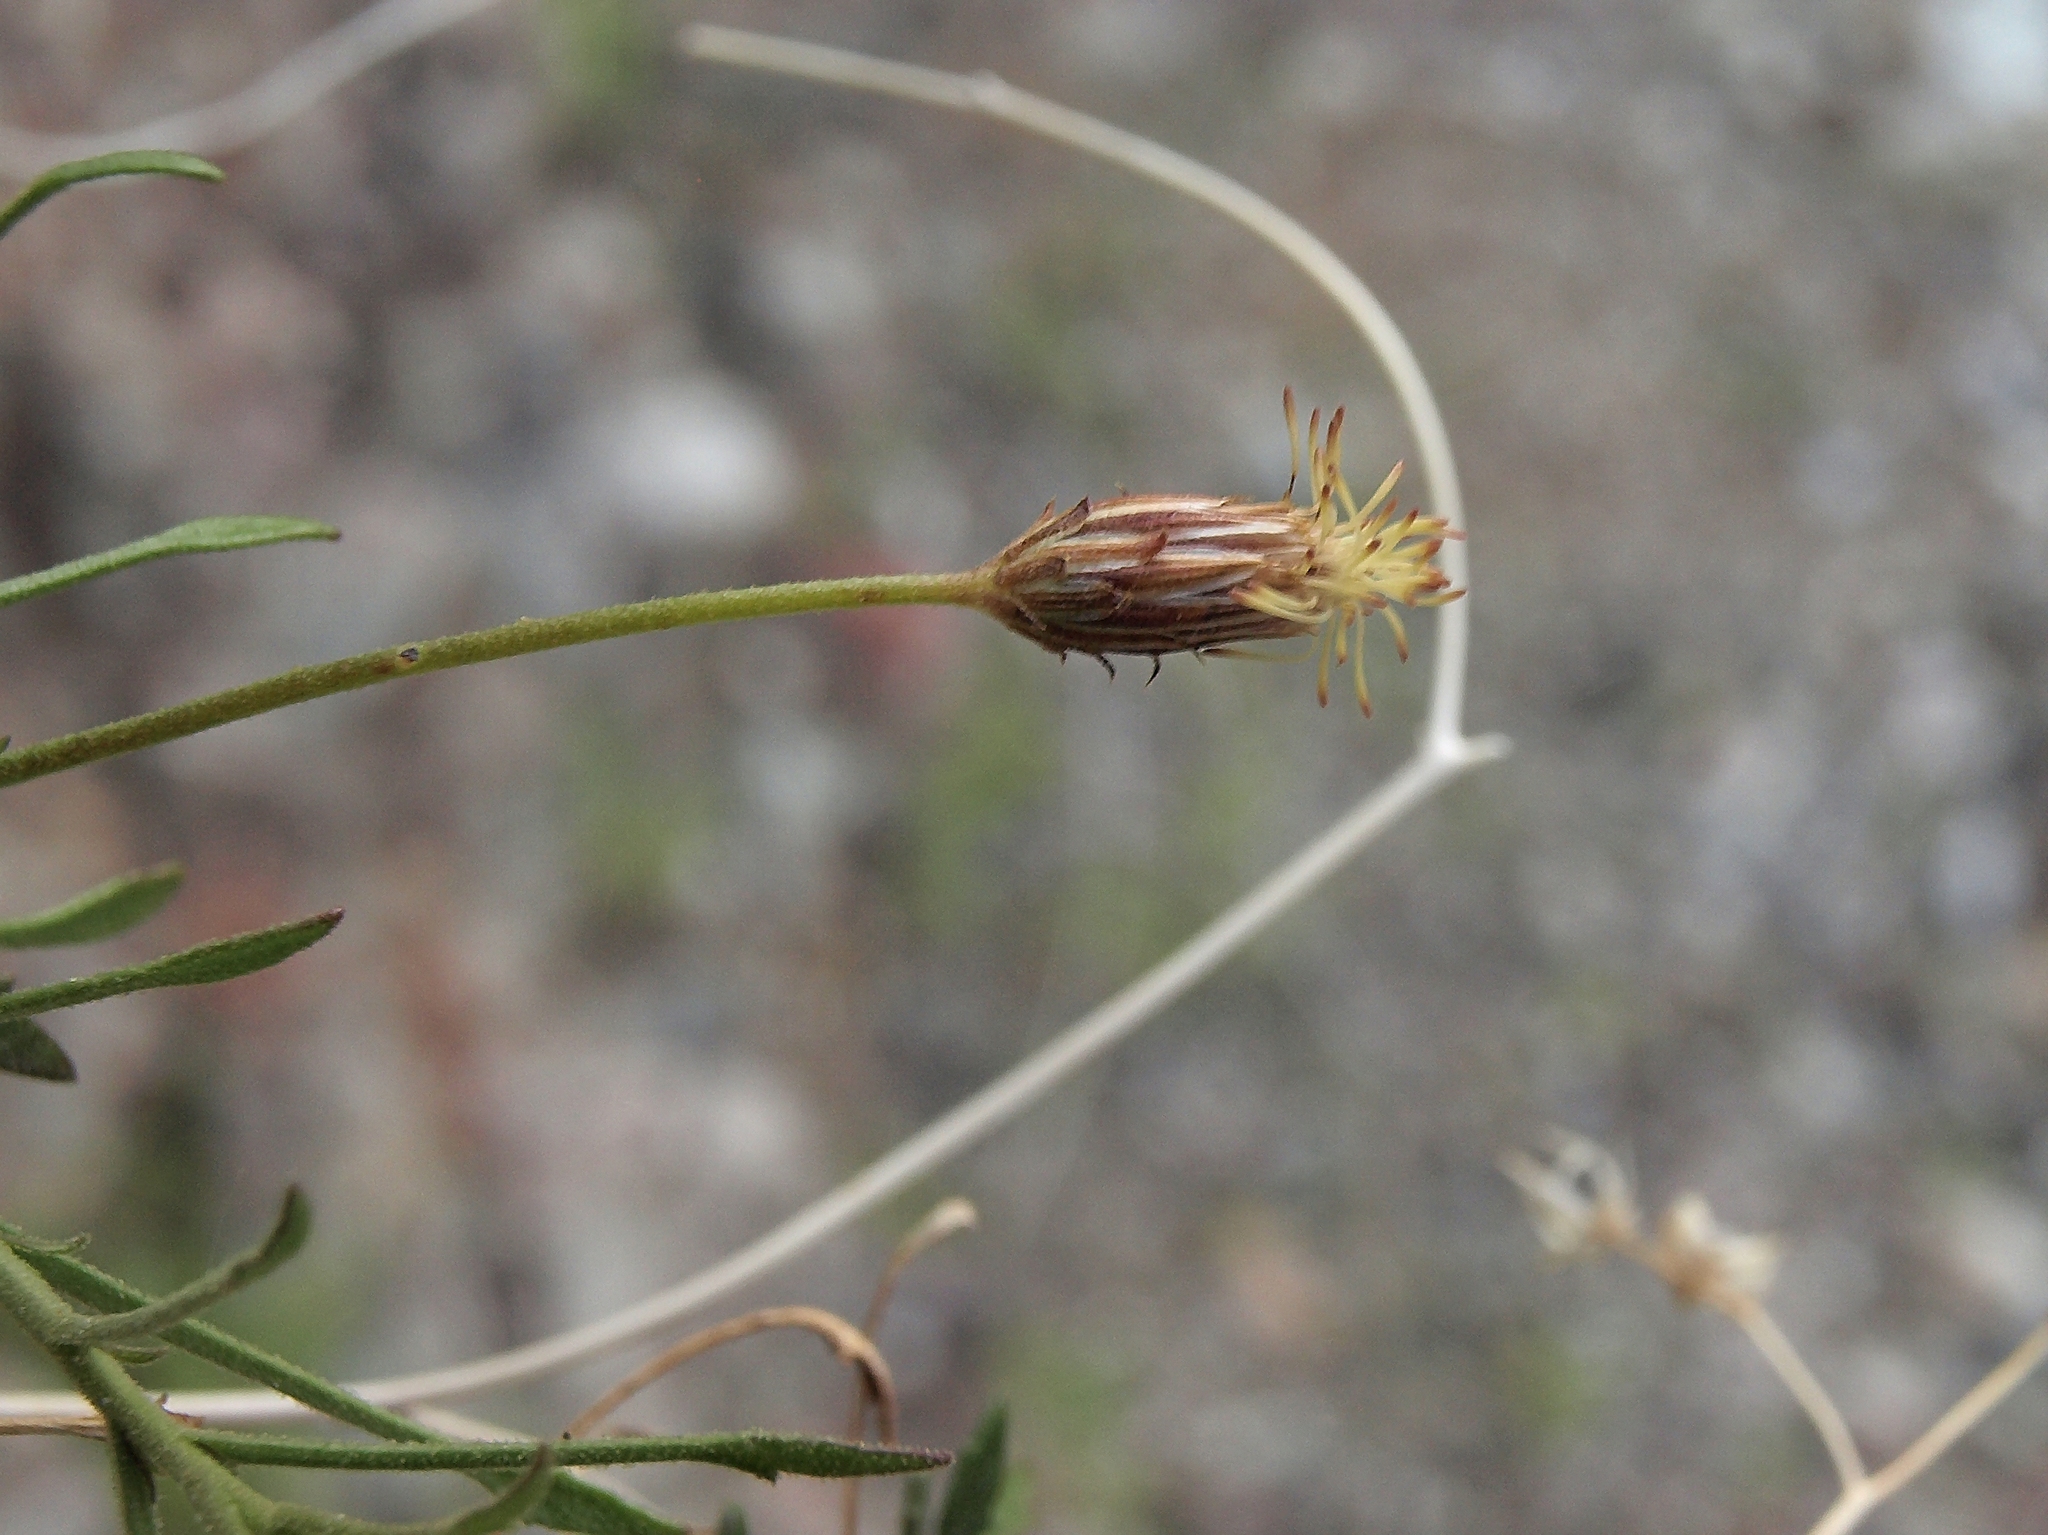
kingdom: Plantae
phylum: Tracheophyta
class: Magnoliopsida
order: Asterales
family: Asteraceae
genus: Pleurocoronis
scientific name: Pleurocoronis pluriseta
